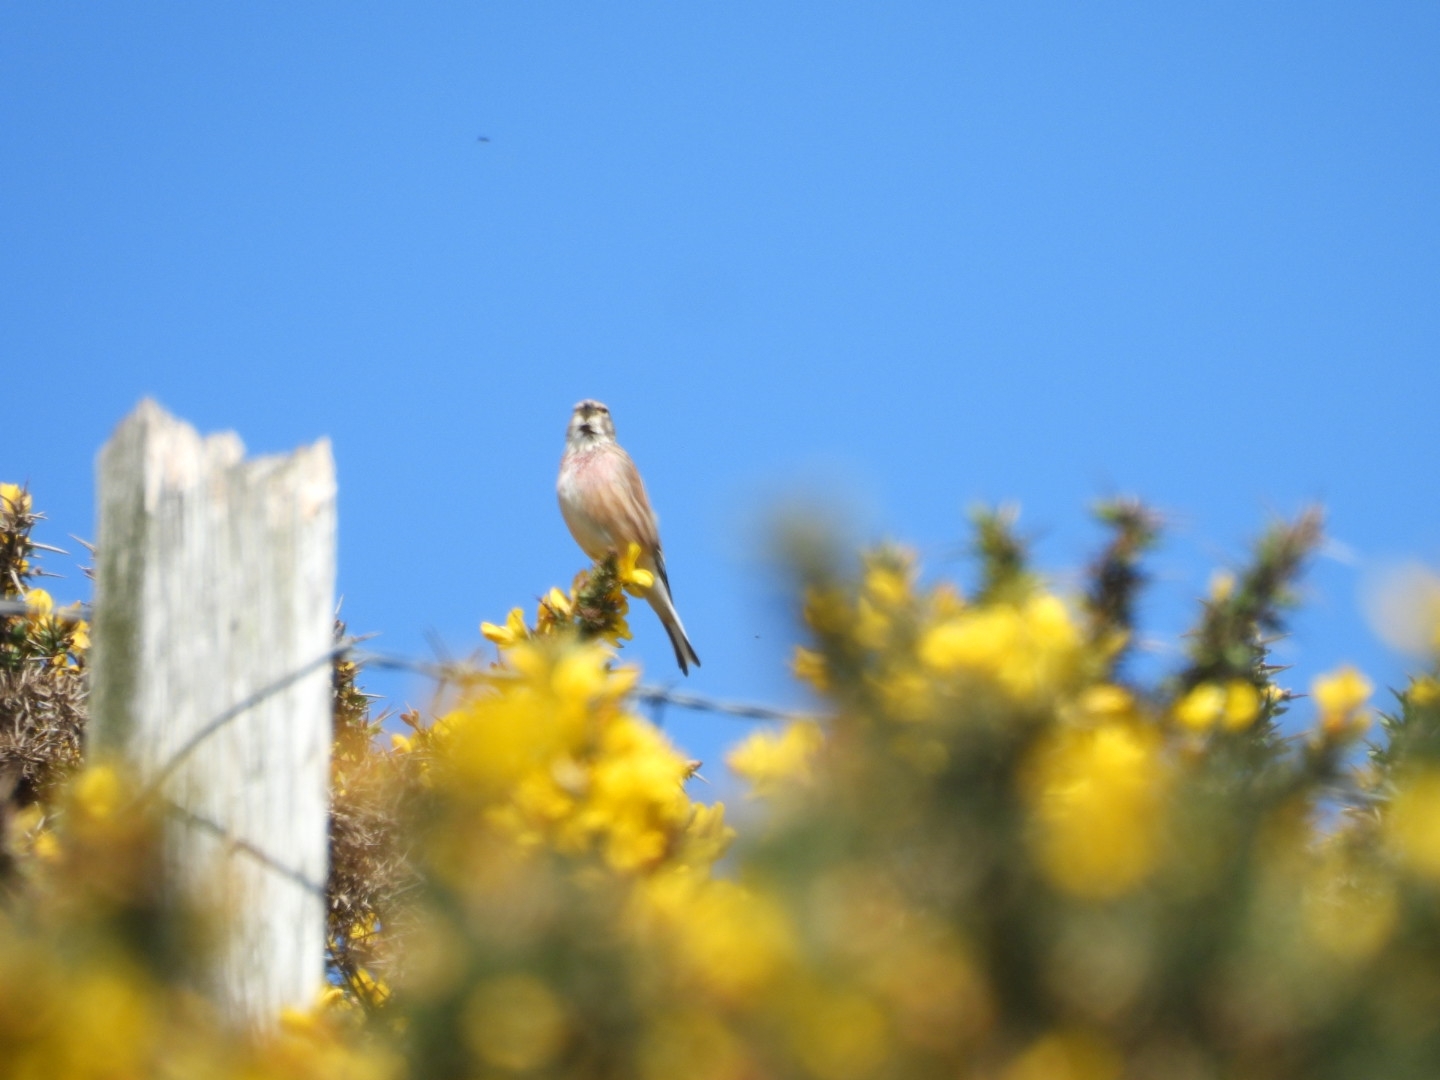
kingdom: Animalia
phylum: Chordata
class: Aves
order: Passeriformes
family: Fringillidae
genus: Linaria
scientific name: Linaria cannabina
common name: Common linnet
